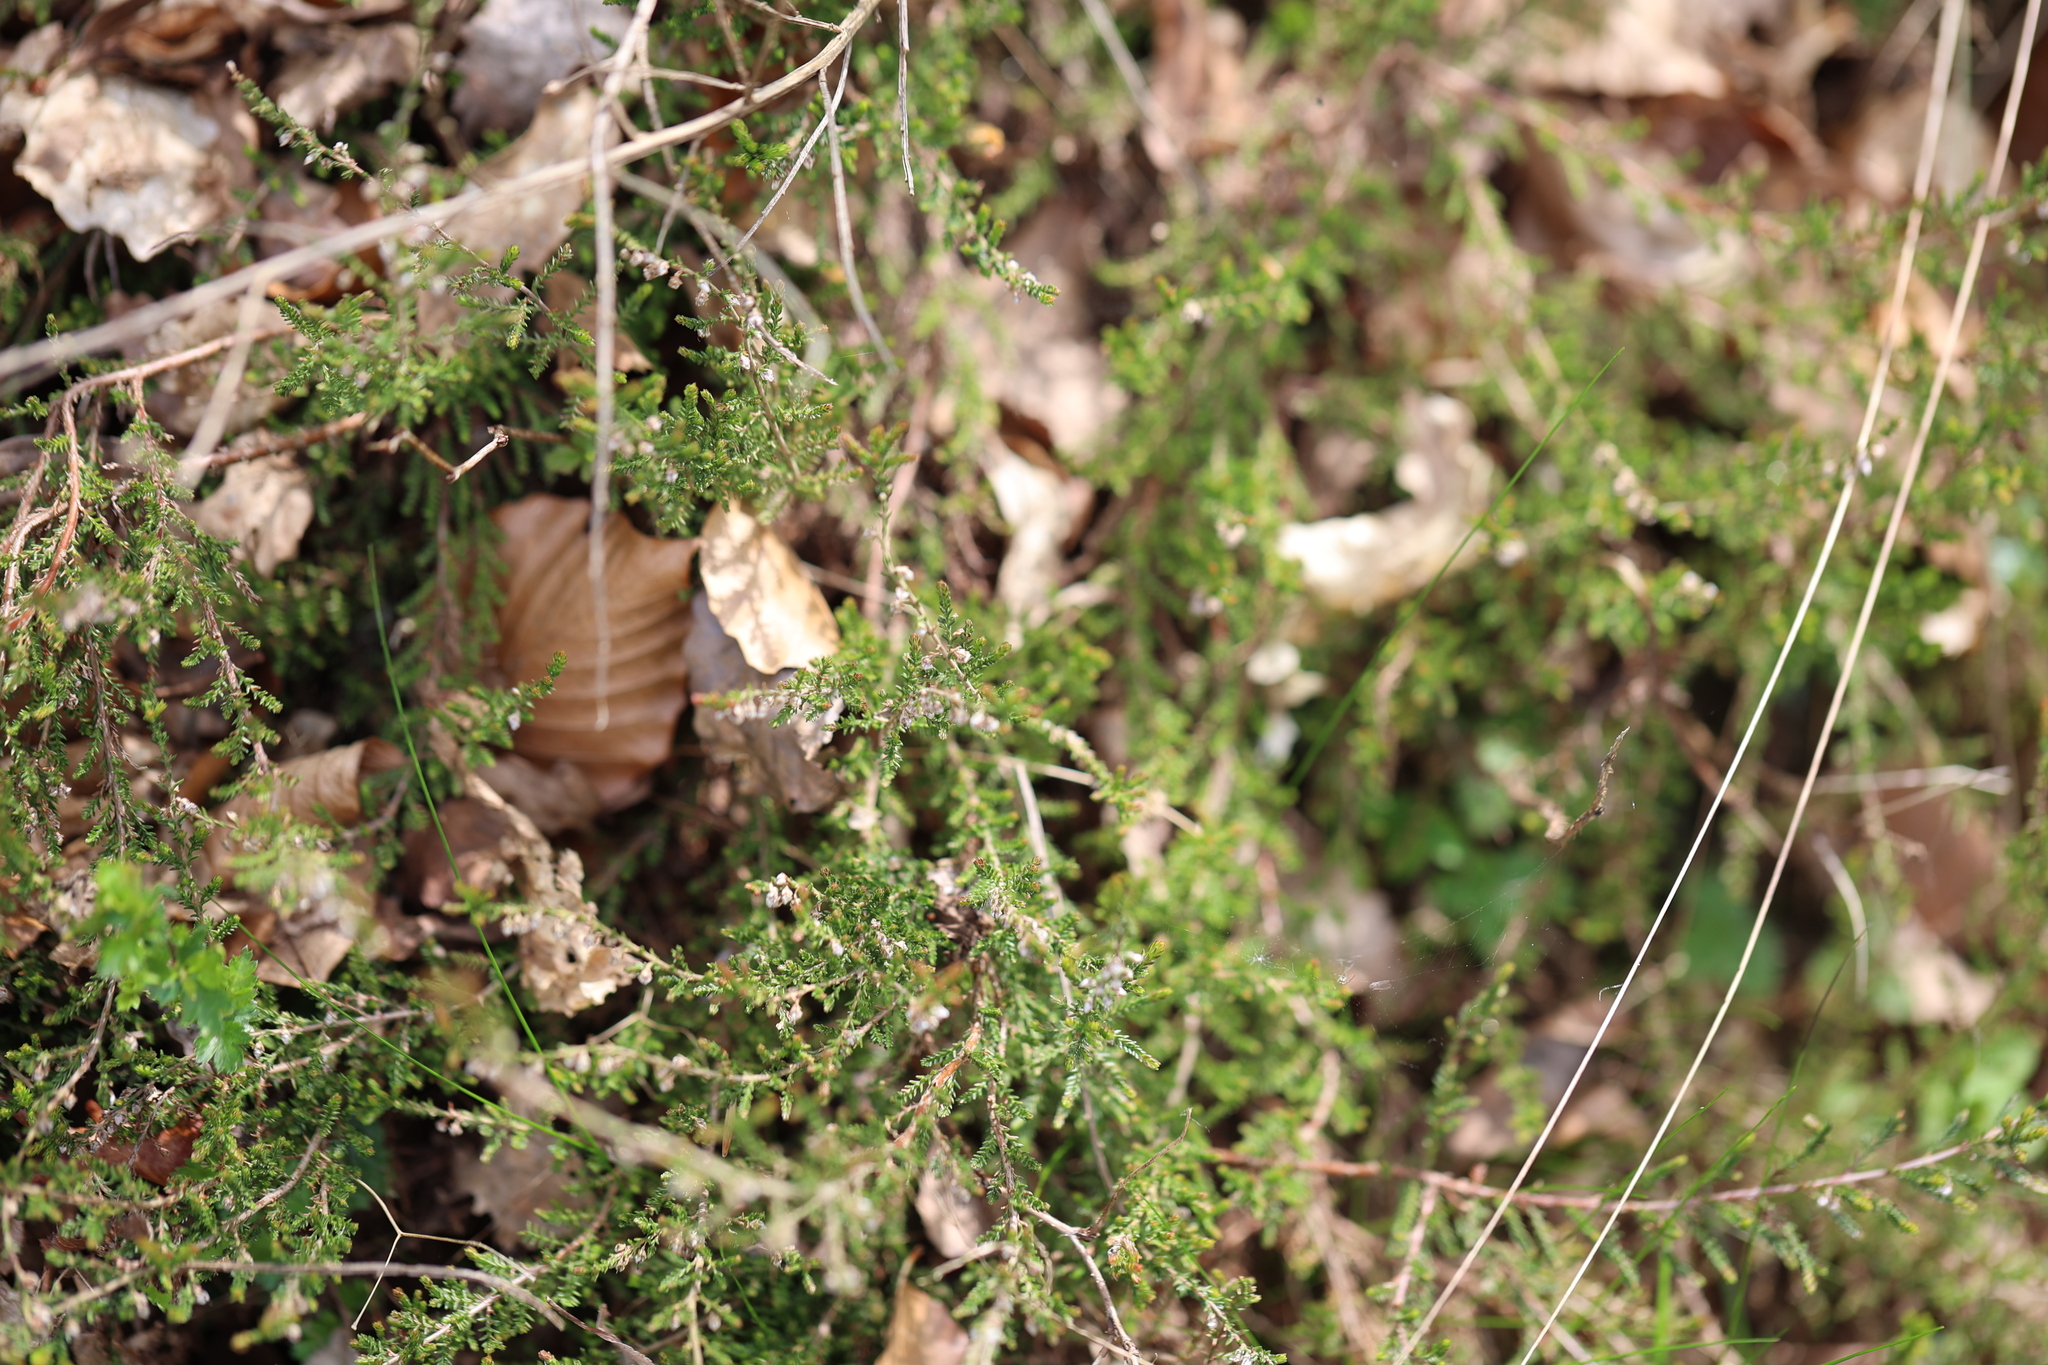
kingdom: Plantae
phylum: Tracheophyta
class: Magnoliopsida
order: Ericales
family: Ericaceae
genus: Calluna
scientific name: Calluna vulgaris
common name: Heather
